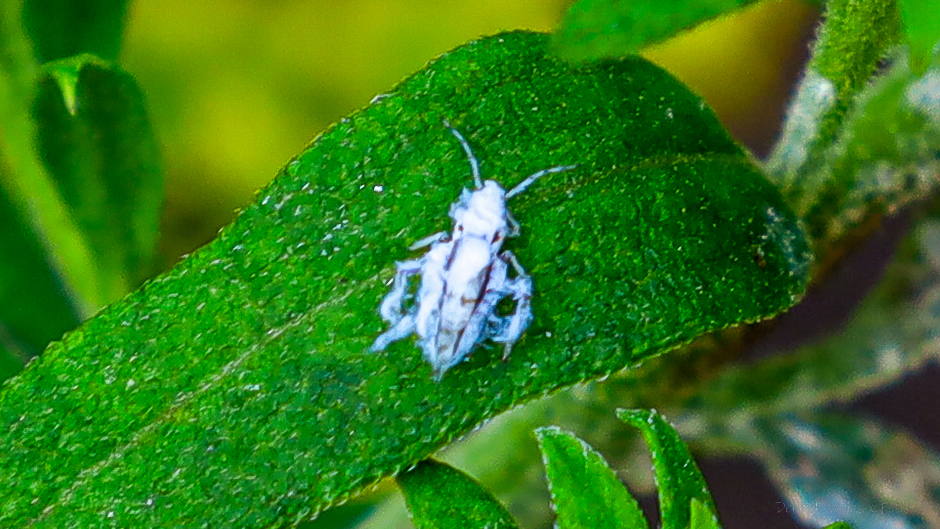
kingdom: Animalia
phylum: Arthropoda
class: Insecta
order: Hemiptera
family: Aphididae
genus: Shivaphis
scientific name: Shivaphis celti
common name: Asian wooly hackberry aphid
